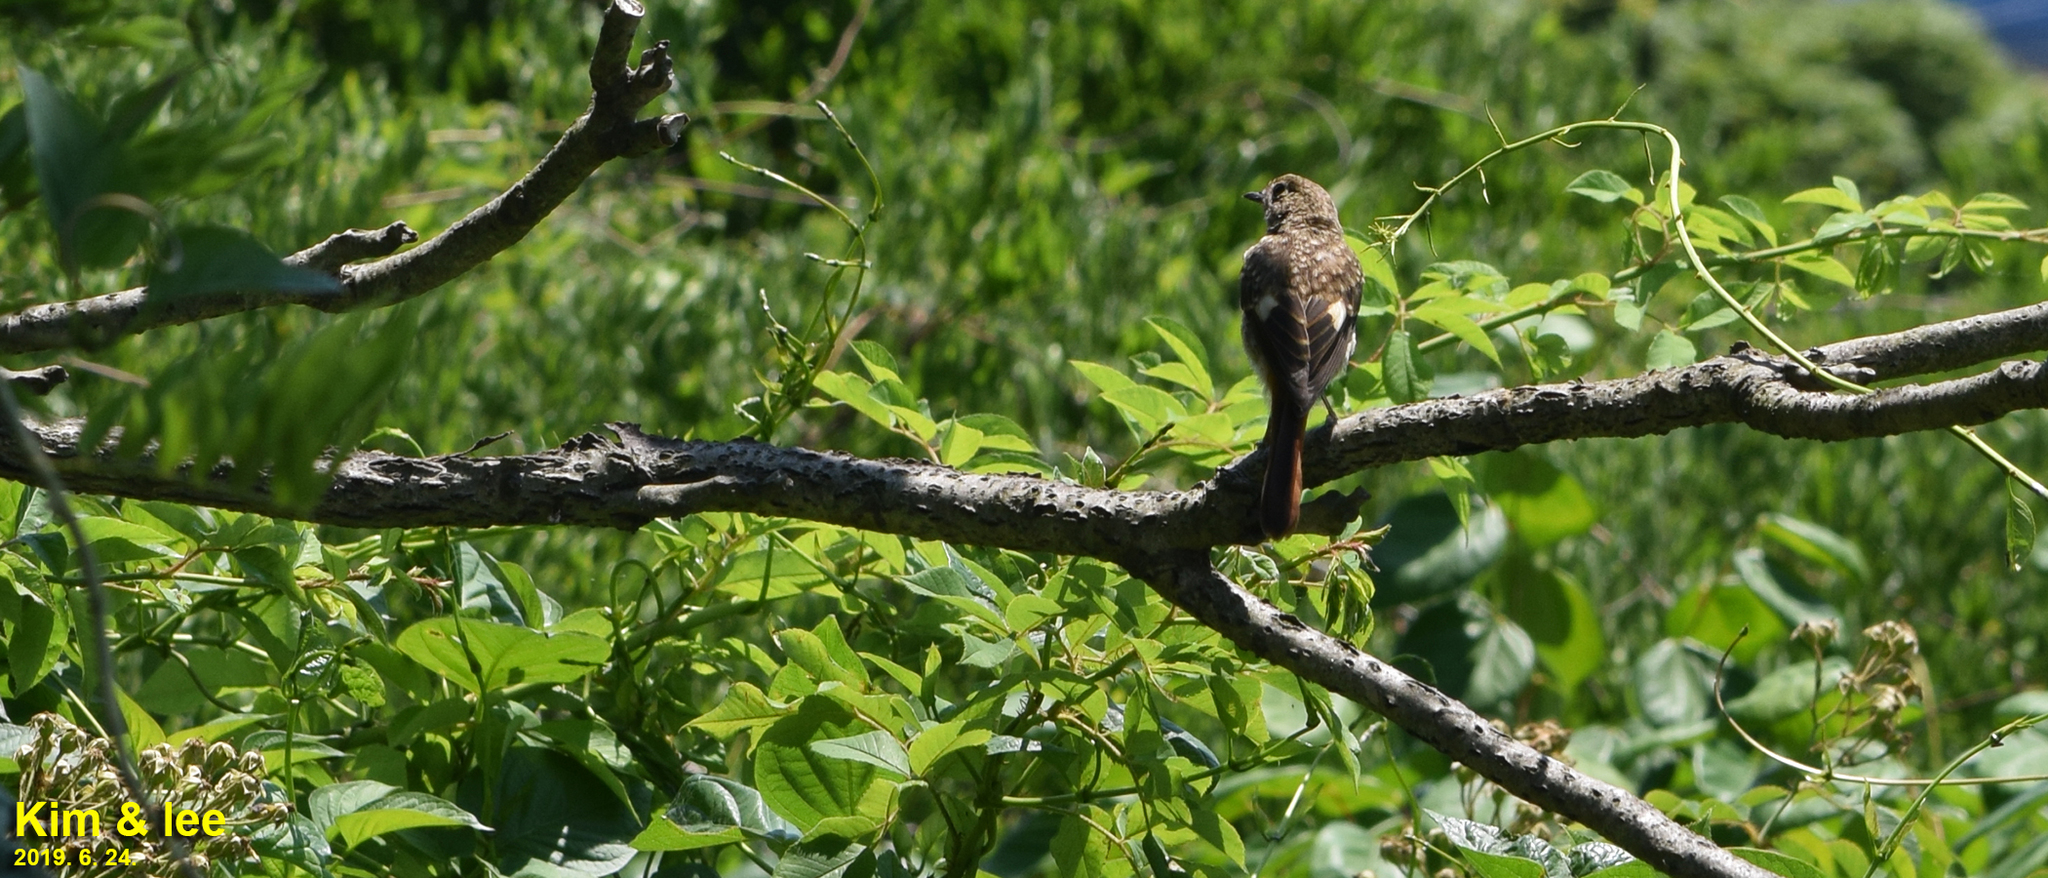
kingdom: Animalia
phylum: Chordata
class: Aves
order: Passeriformes
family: Muscicapidae
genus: Phoenicurus
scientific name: Phoenicurus auroreus
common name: Daurian redstart
